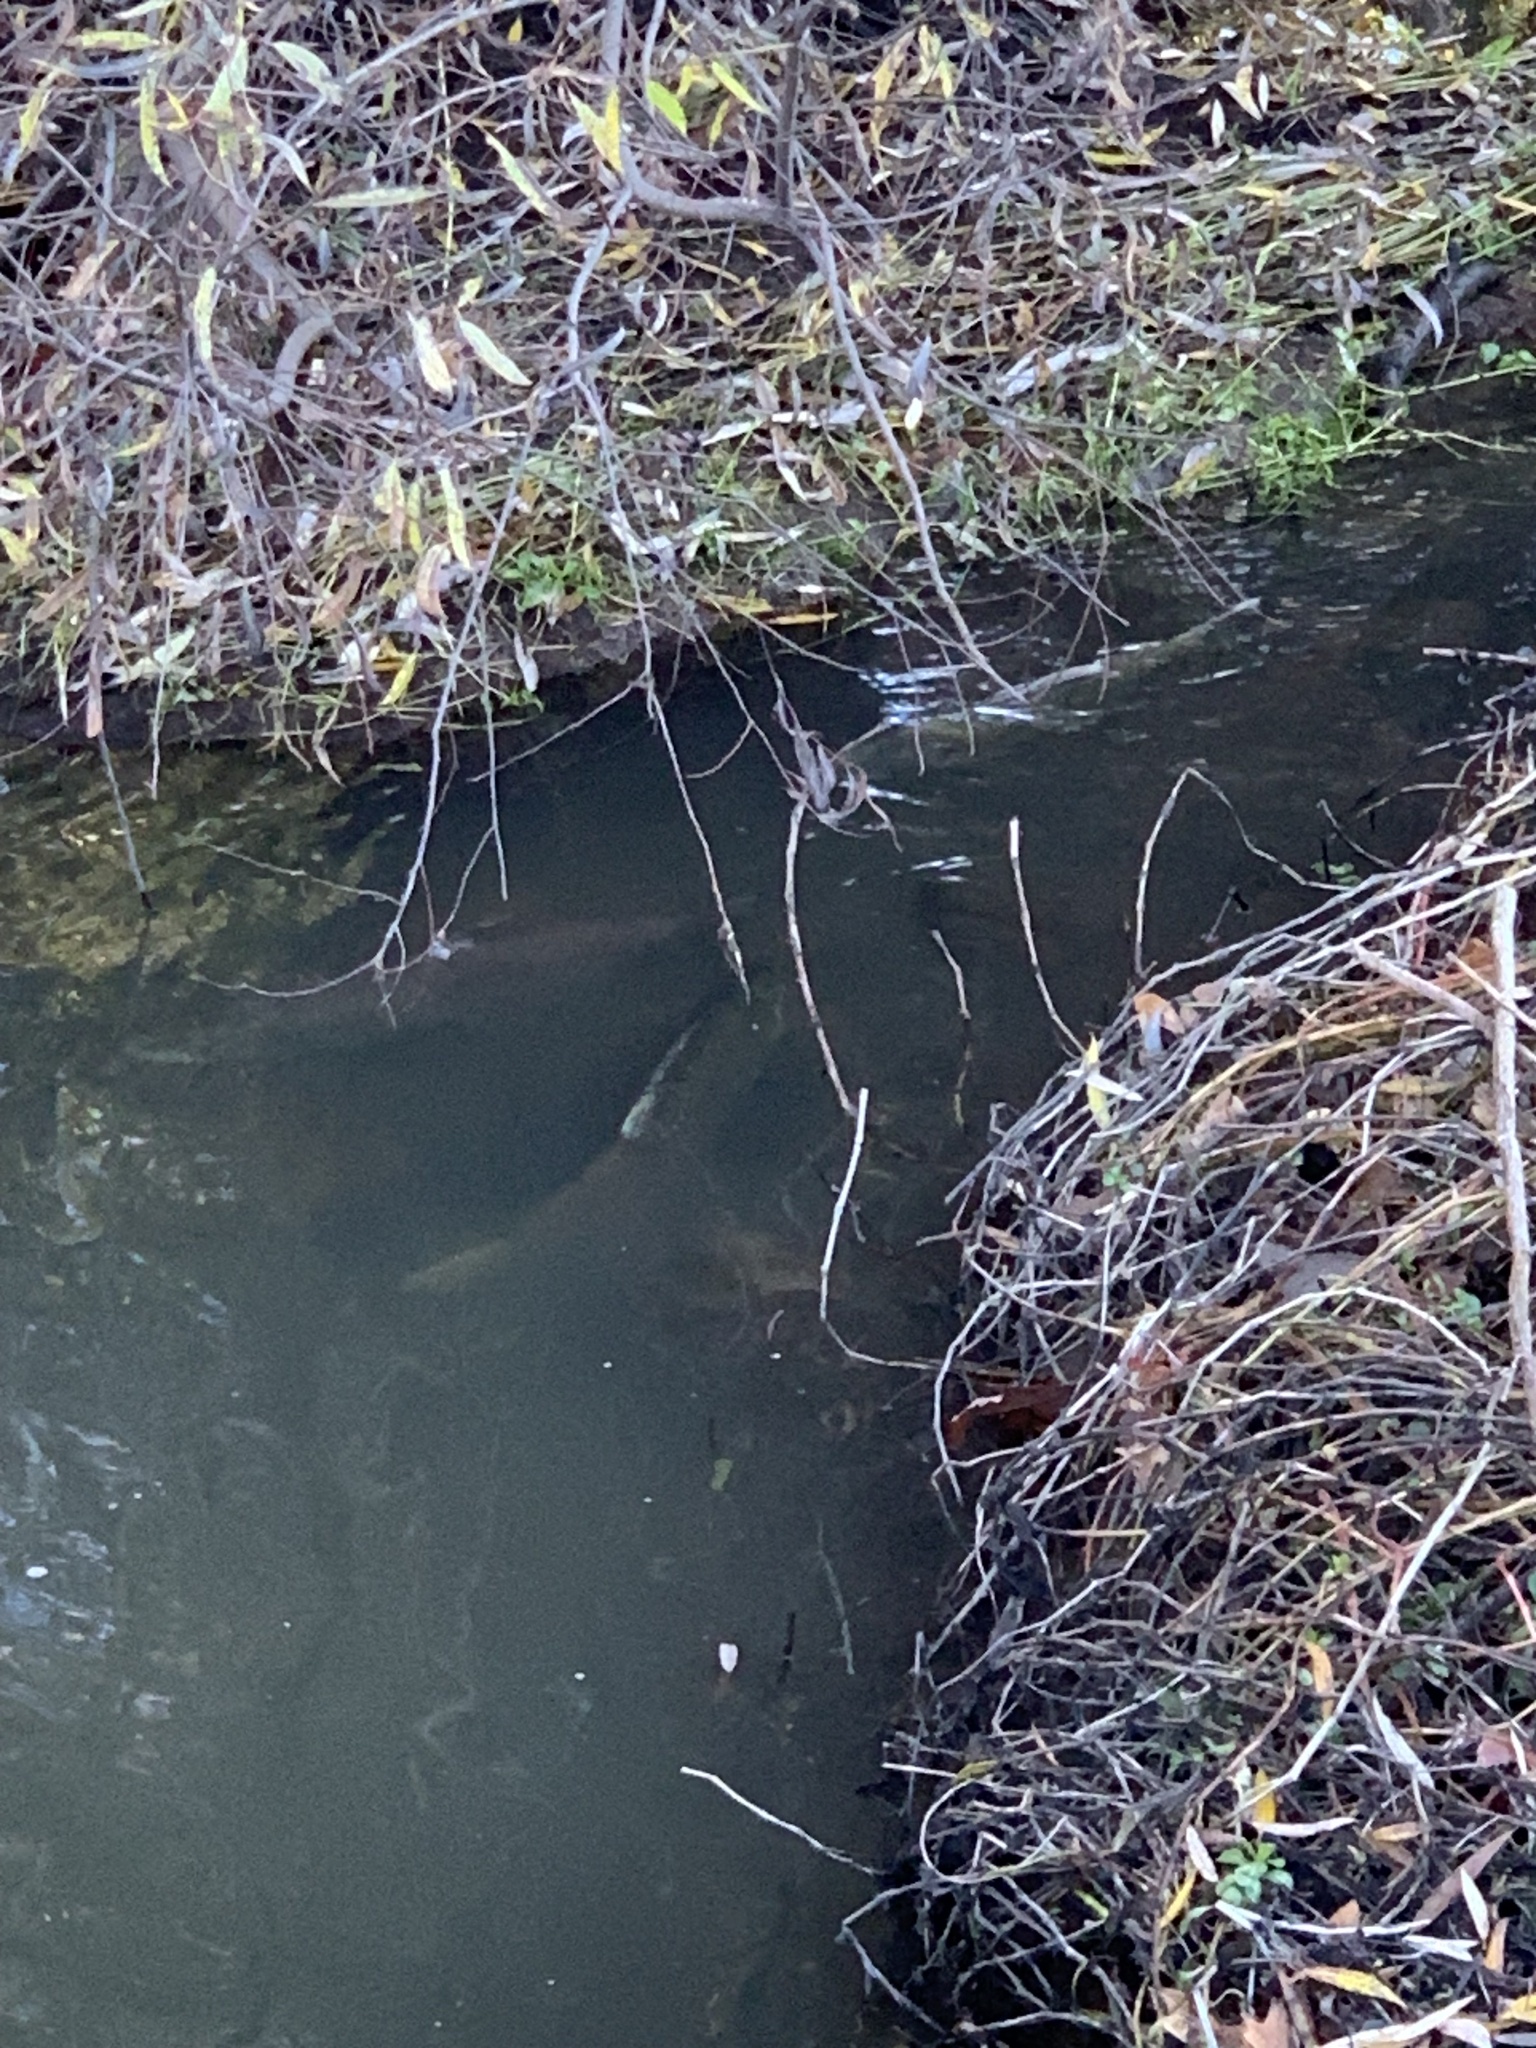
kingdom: Animalia
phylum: Chordata
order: Salmoniformes
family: Salmonidae
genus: Oncorhynchus
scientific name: Oncorhynchus tshawytscha
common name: Chinook salmon
